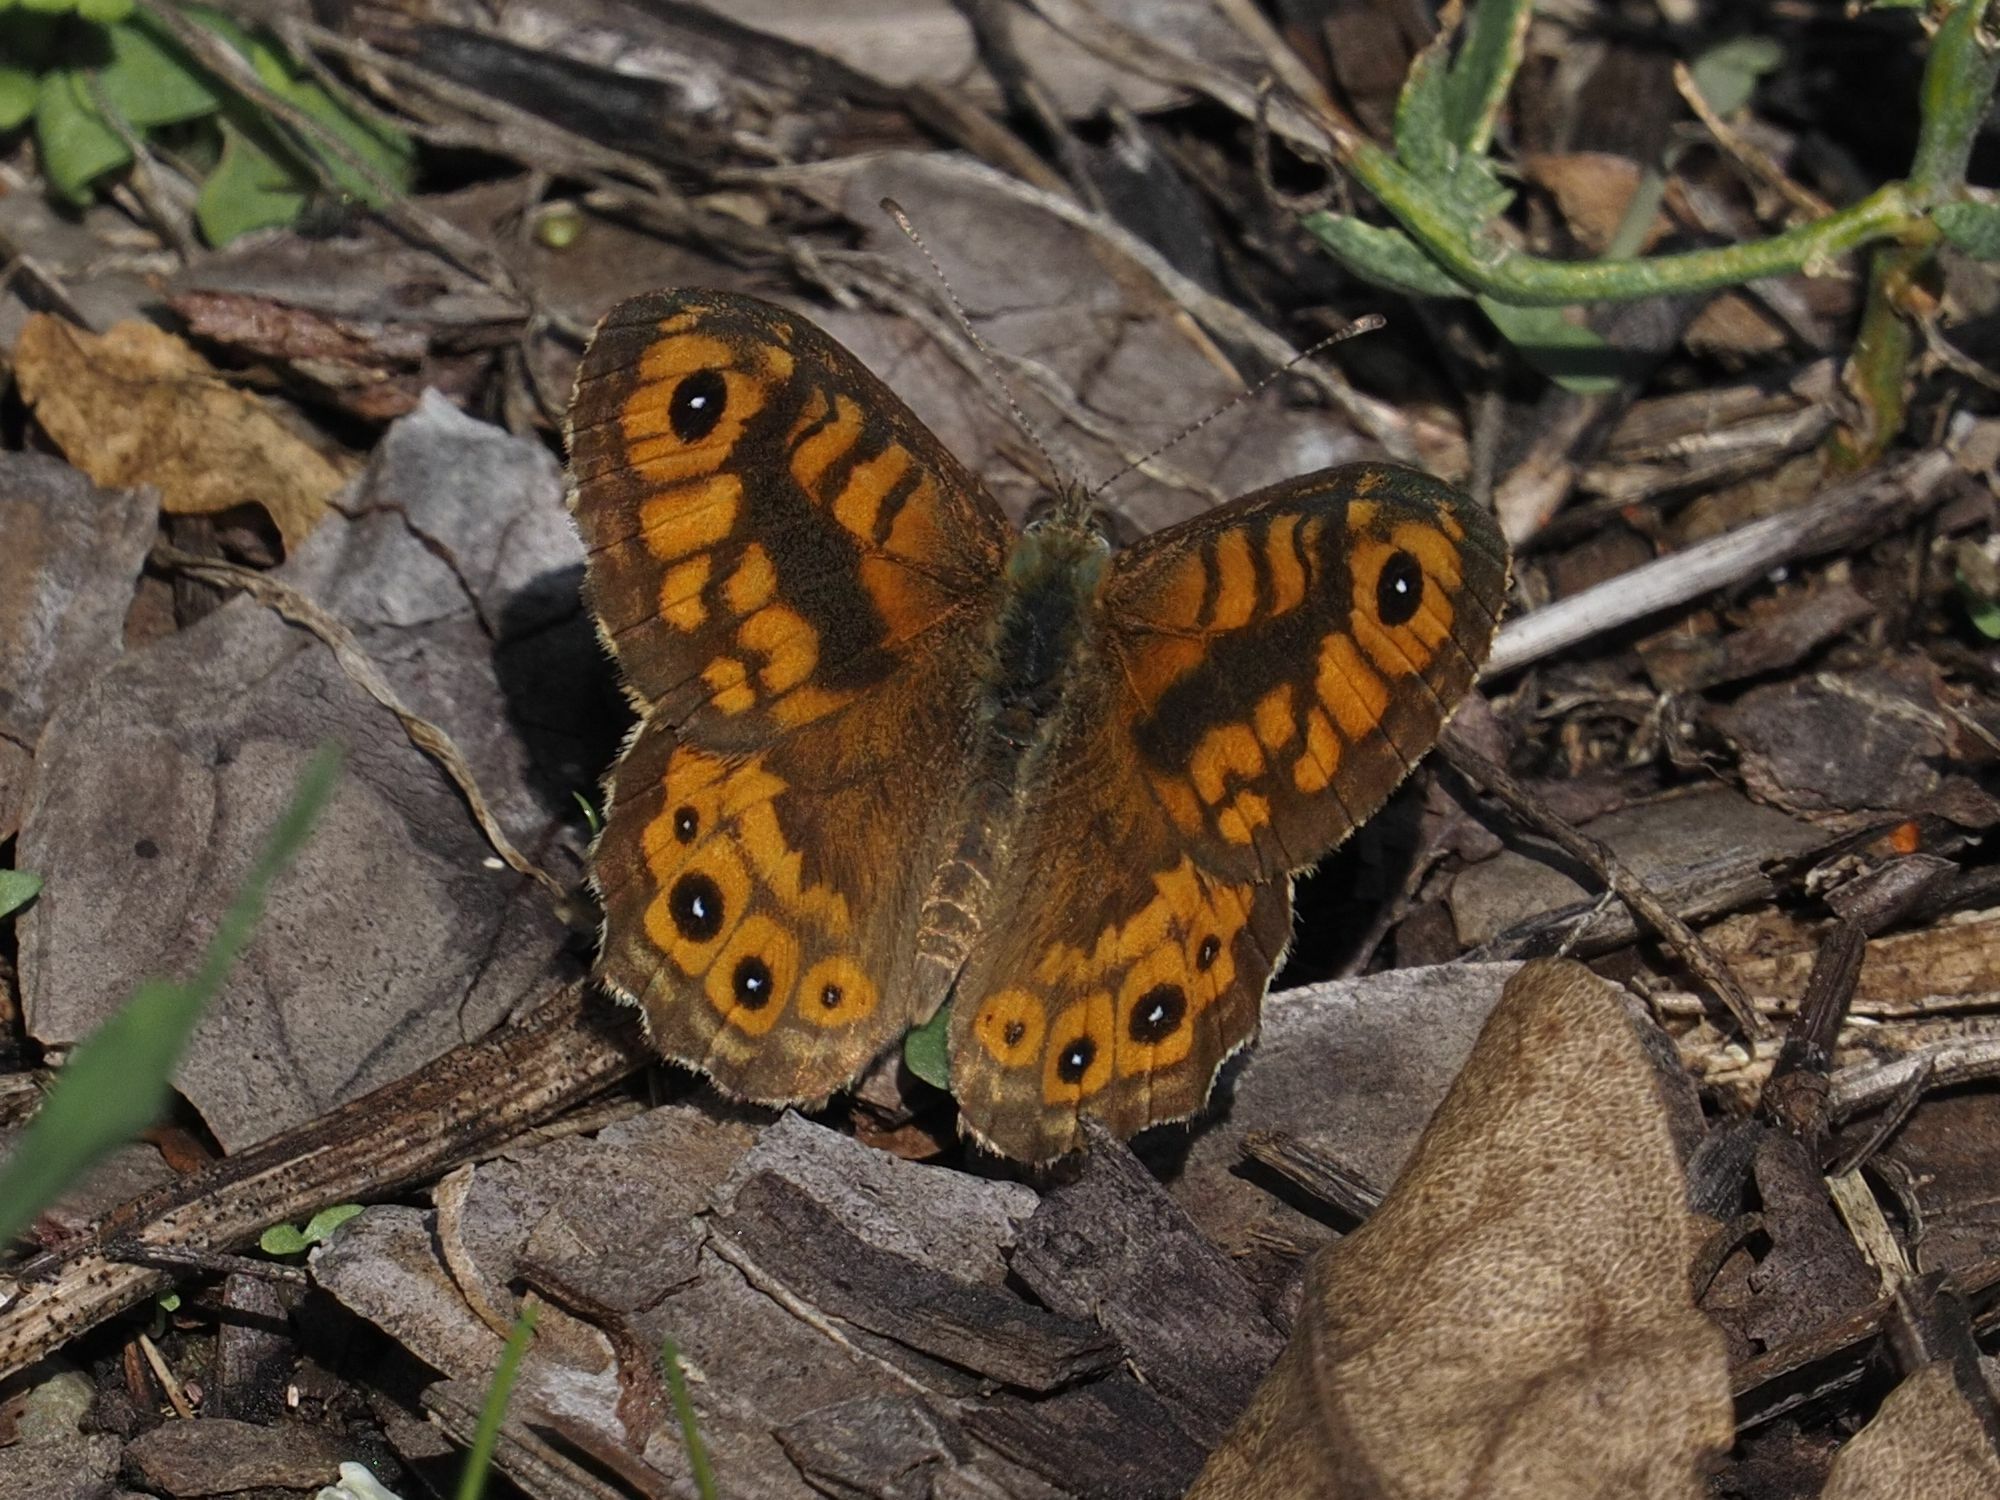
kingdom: Animalia
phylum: Arthropoda
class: Insecta
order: Lepidoptera
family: Nymphalidae
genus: Pararge
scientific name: Pararge Lasiommata megera
